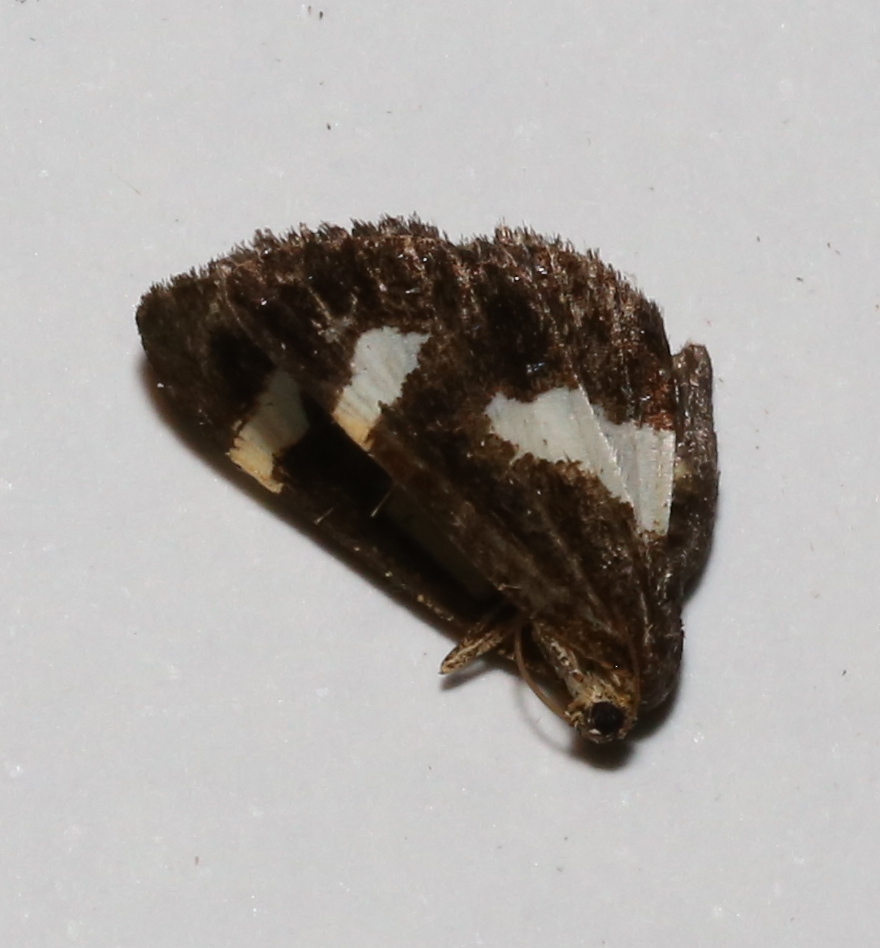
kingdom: Animalia
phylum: Arthropoda
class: Insecta
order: Lepidoptera
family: Geometridae
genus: Heliomata
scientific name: Heliomata cycladata
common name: Common spring moth
